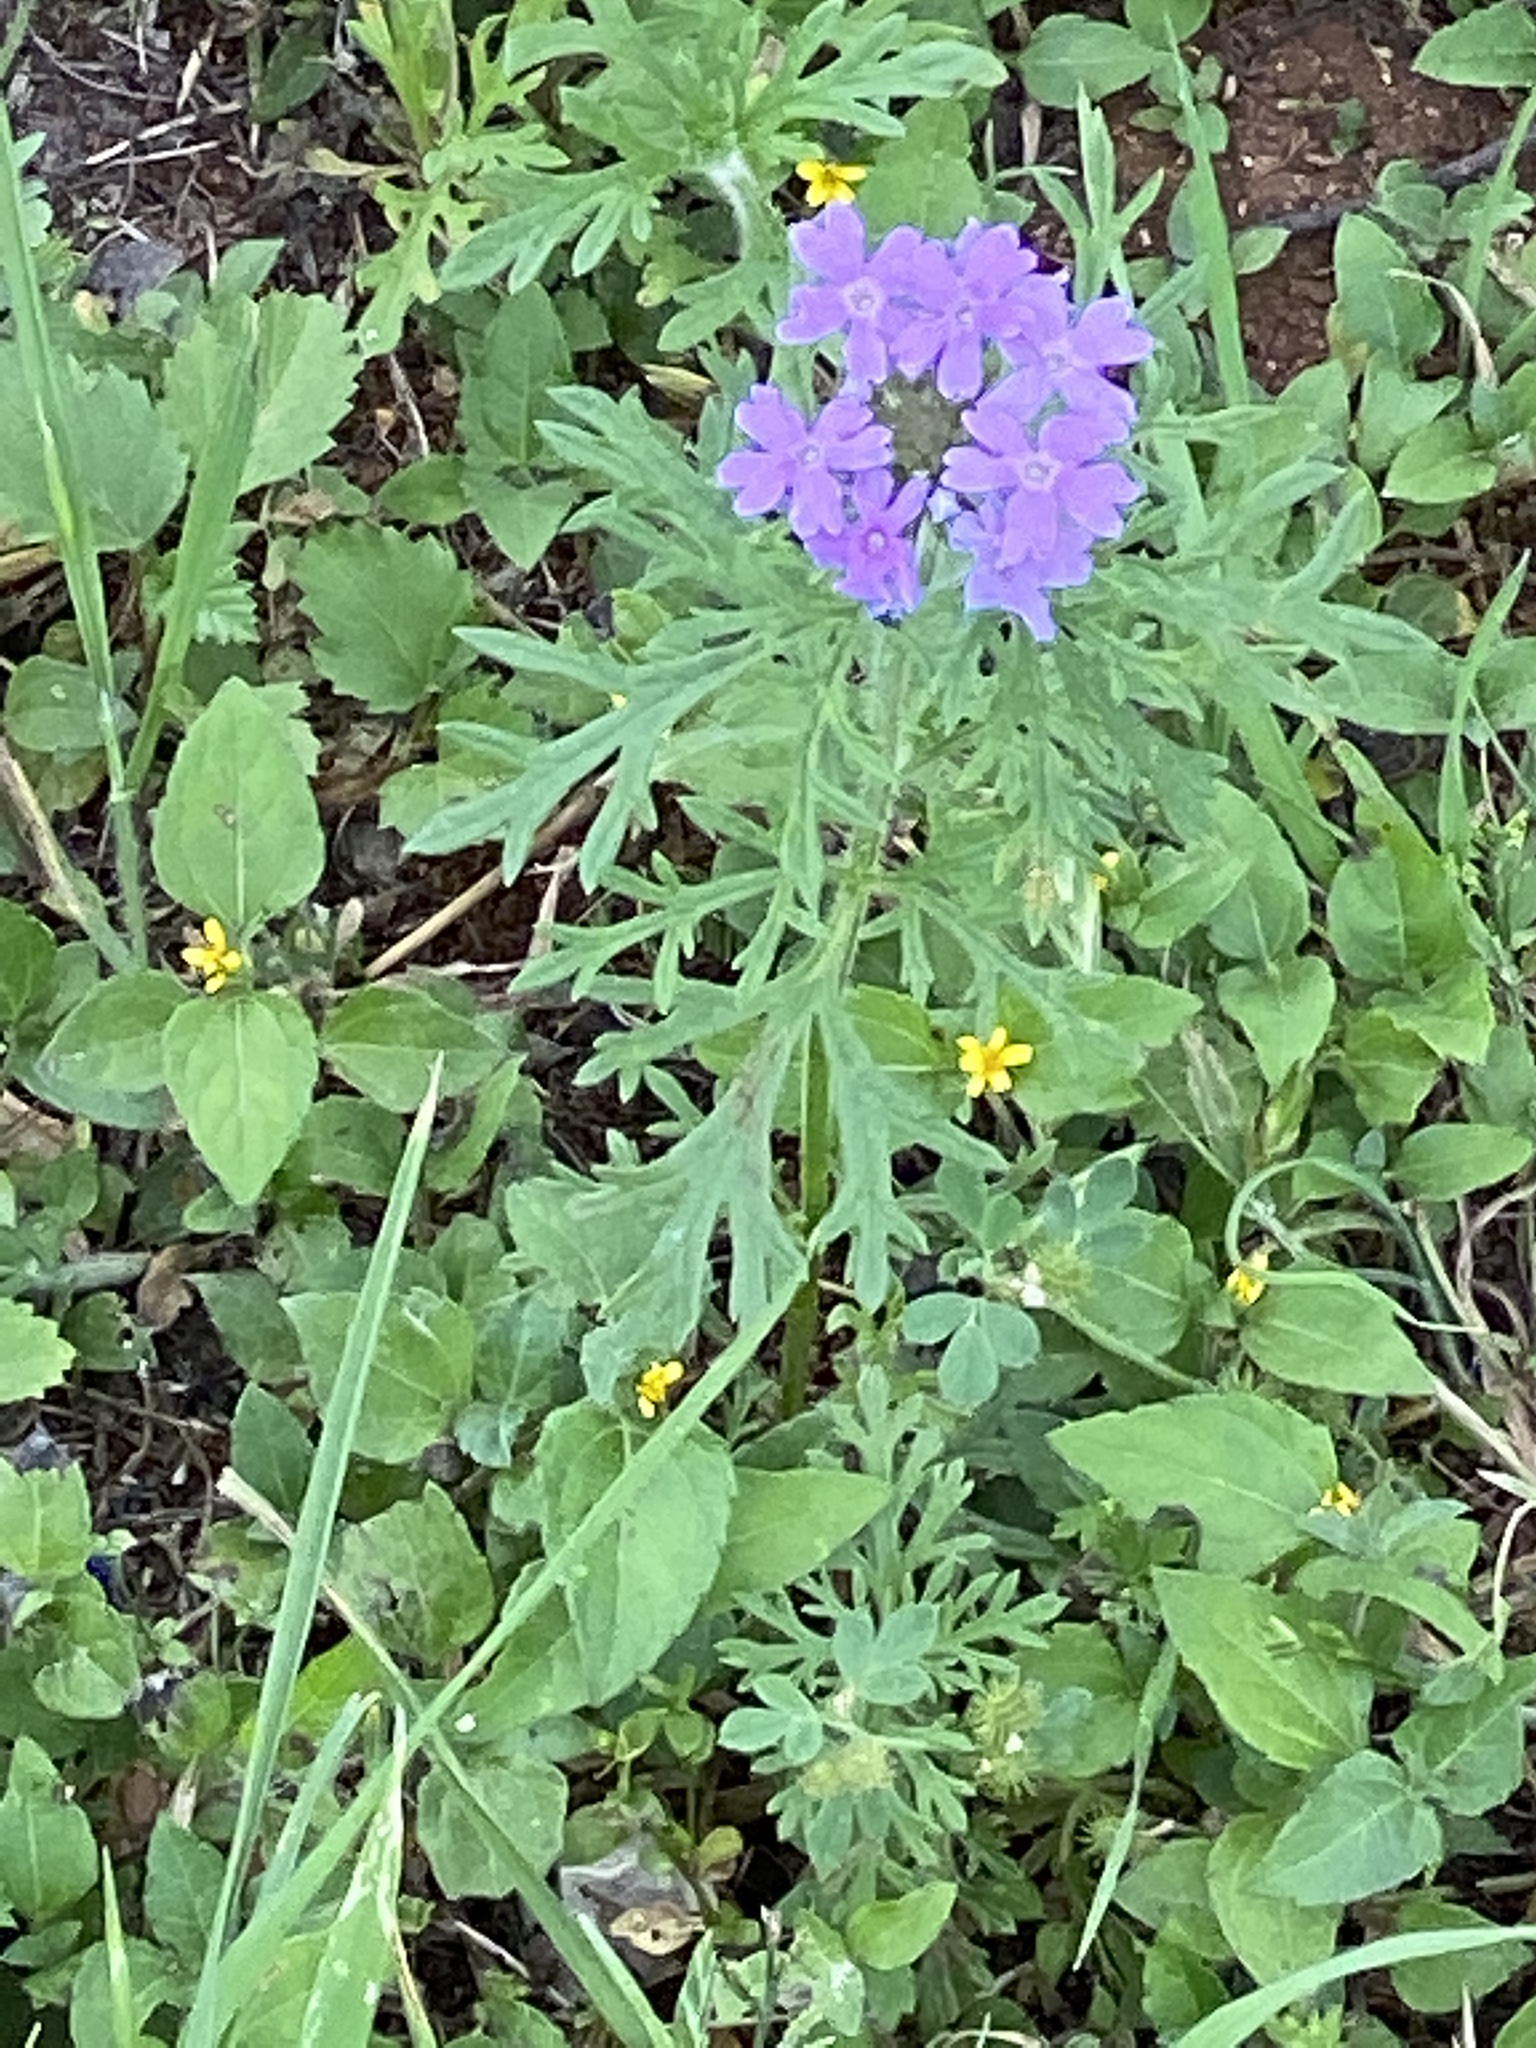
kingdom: Plantae
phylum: Tracheophyta
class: Magnoliopsida
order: Lamiales
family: Verbenaceae
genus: Verbena
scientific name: Verbena bipinnatifida
